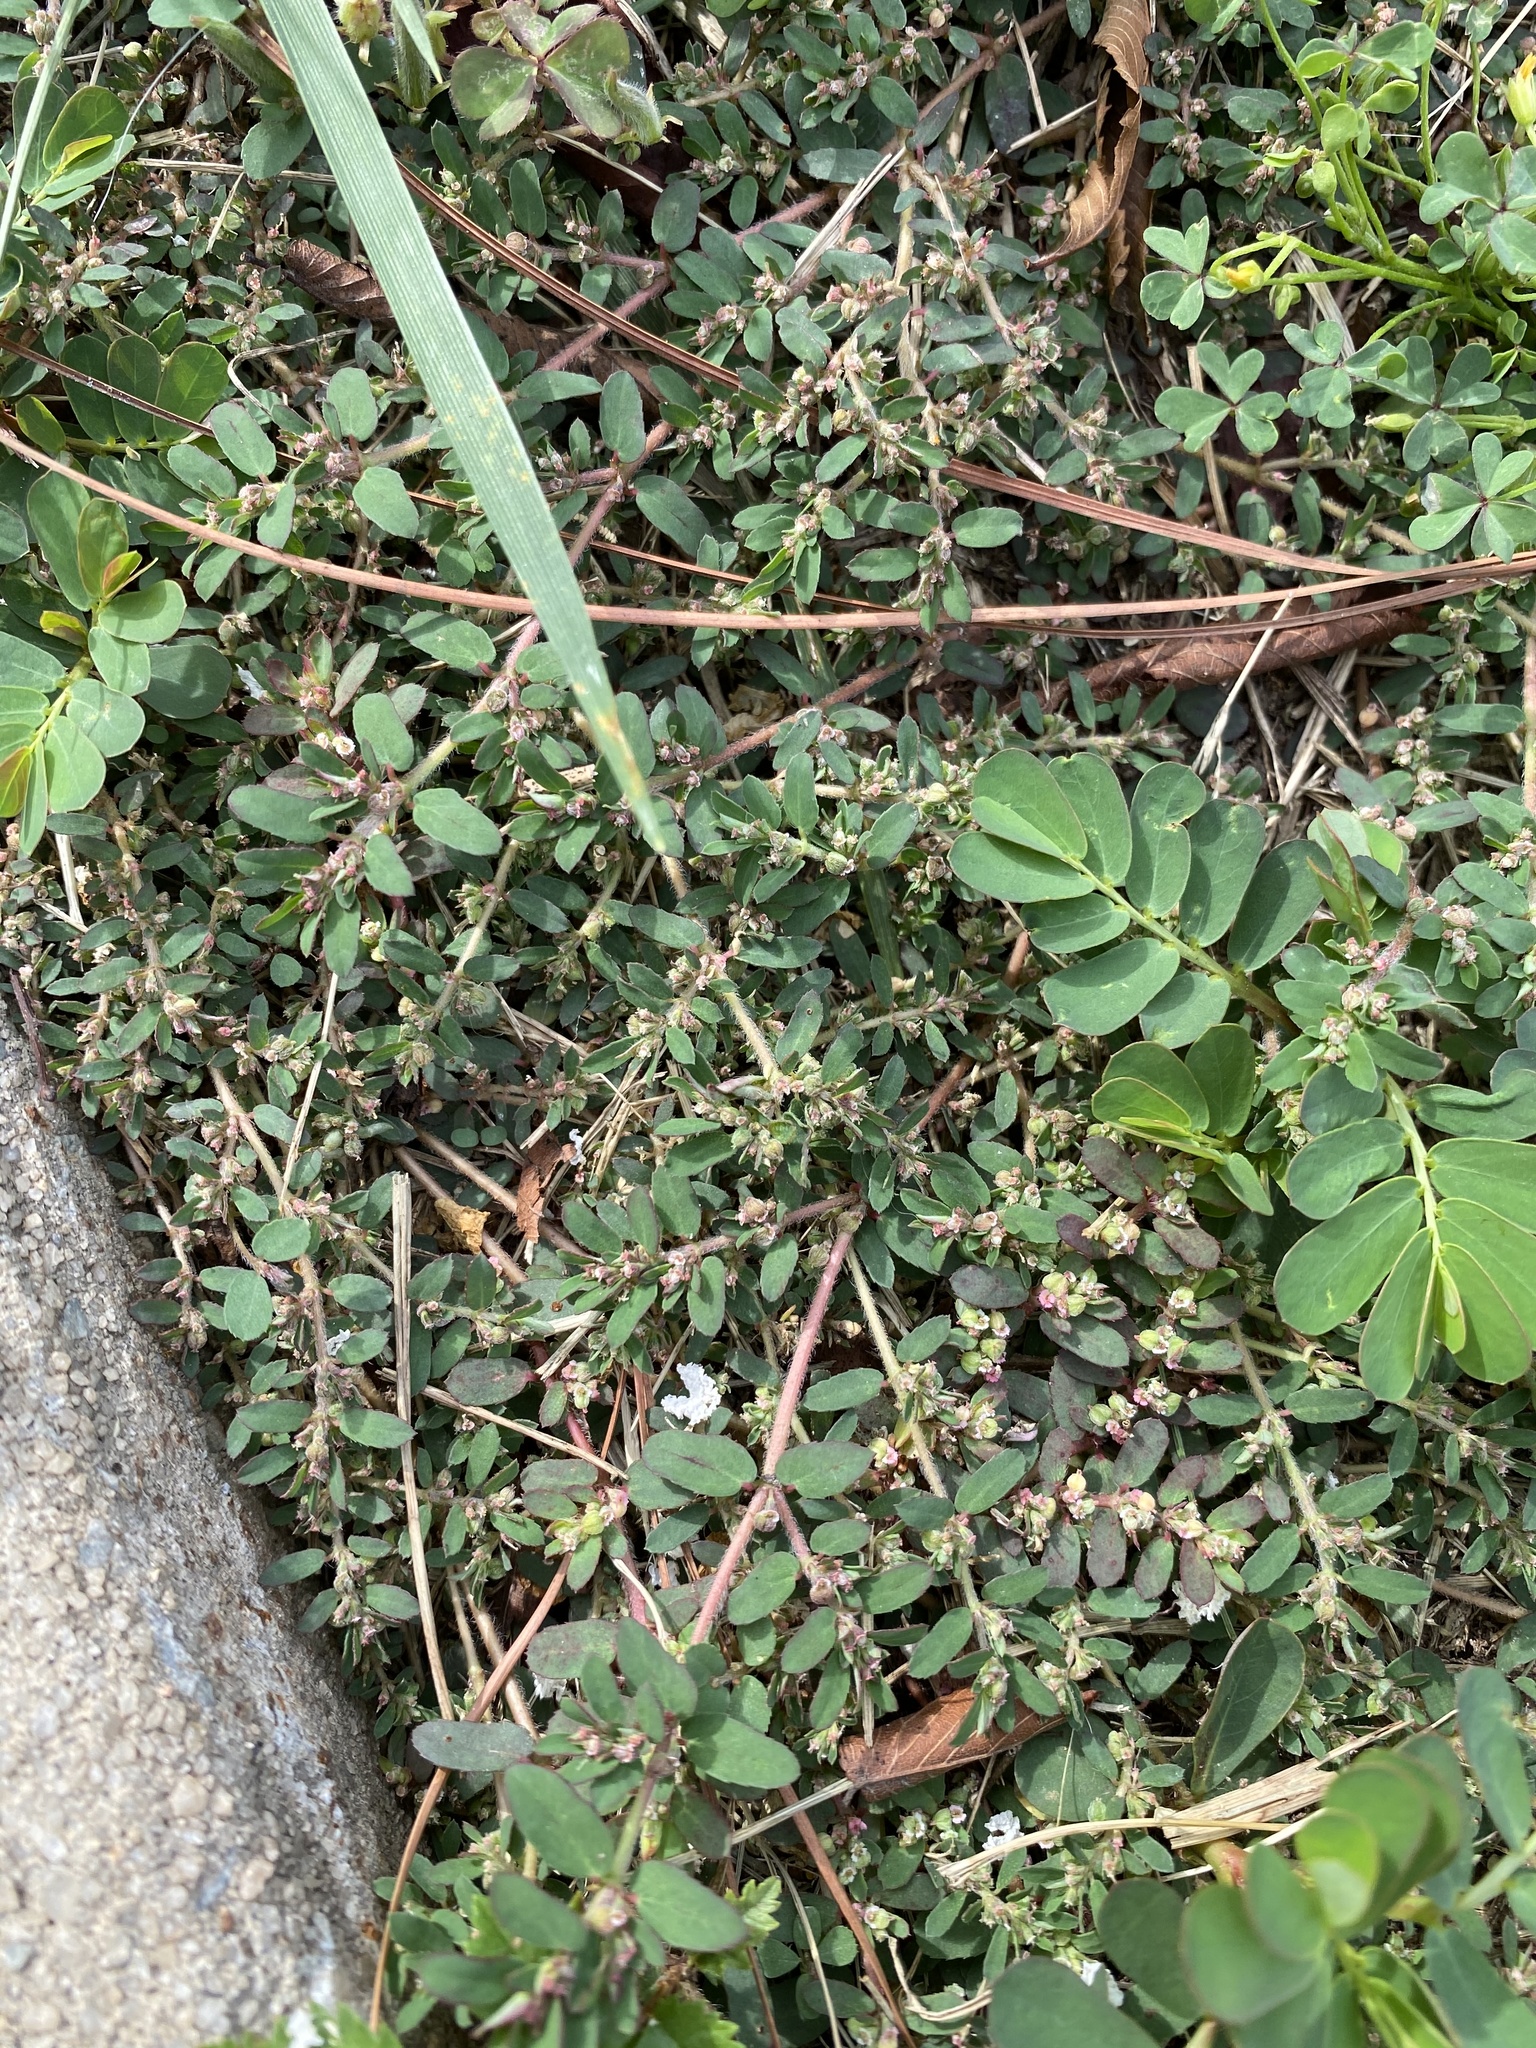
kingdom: Plantae
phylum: Tracheophyta
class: Magnoliopsida
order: Malpighiales
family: Euphorbiaceae
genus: Euphorbia
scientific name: Euphorbia maculata
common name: Spotted spurge
